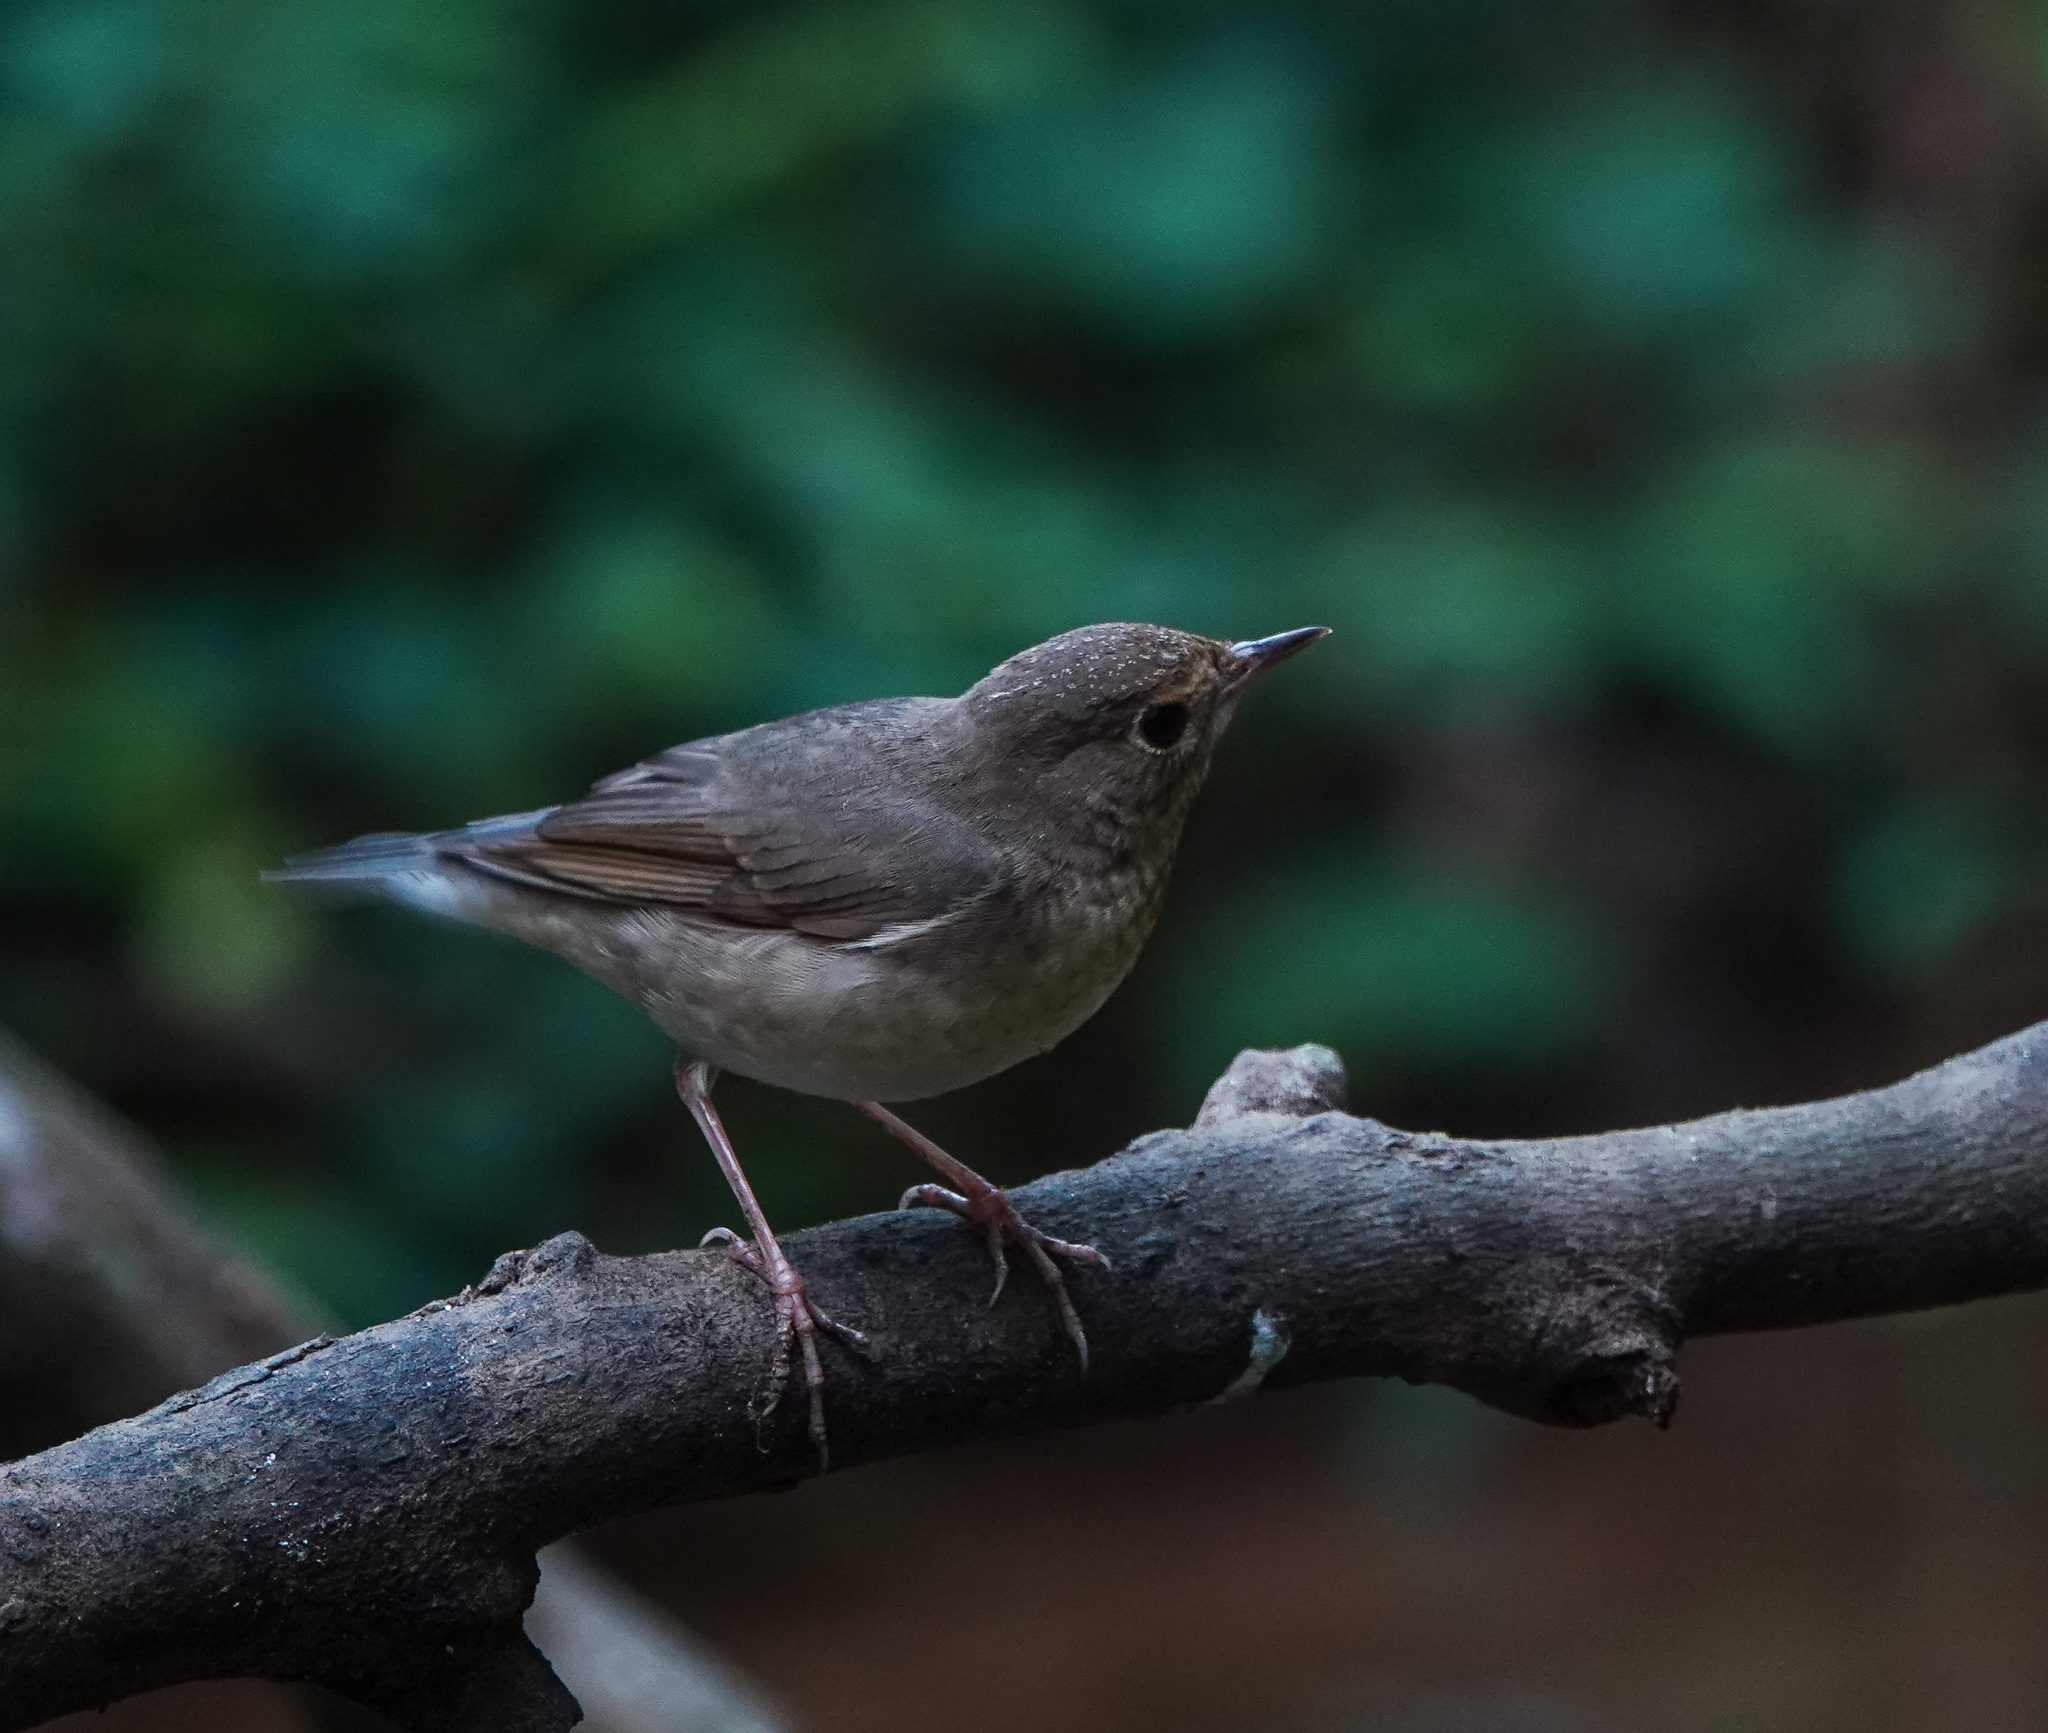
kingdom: Animalia
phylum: Chordata
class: Aves
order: Passeriformes
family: Muscicapidae
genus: Luscinia
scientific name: Luscinia cyane
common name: Siberian blue robin
